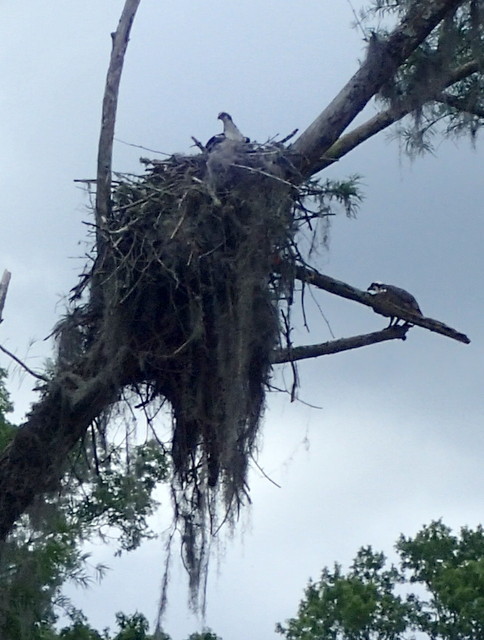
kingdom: Animalia
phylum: Chordata
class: Aves
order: Accipitriformes
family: Pandionidae
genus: Pandion
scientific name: Pandion haliaetus
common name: Osprey
